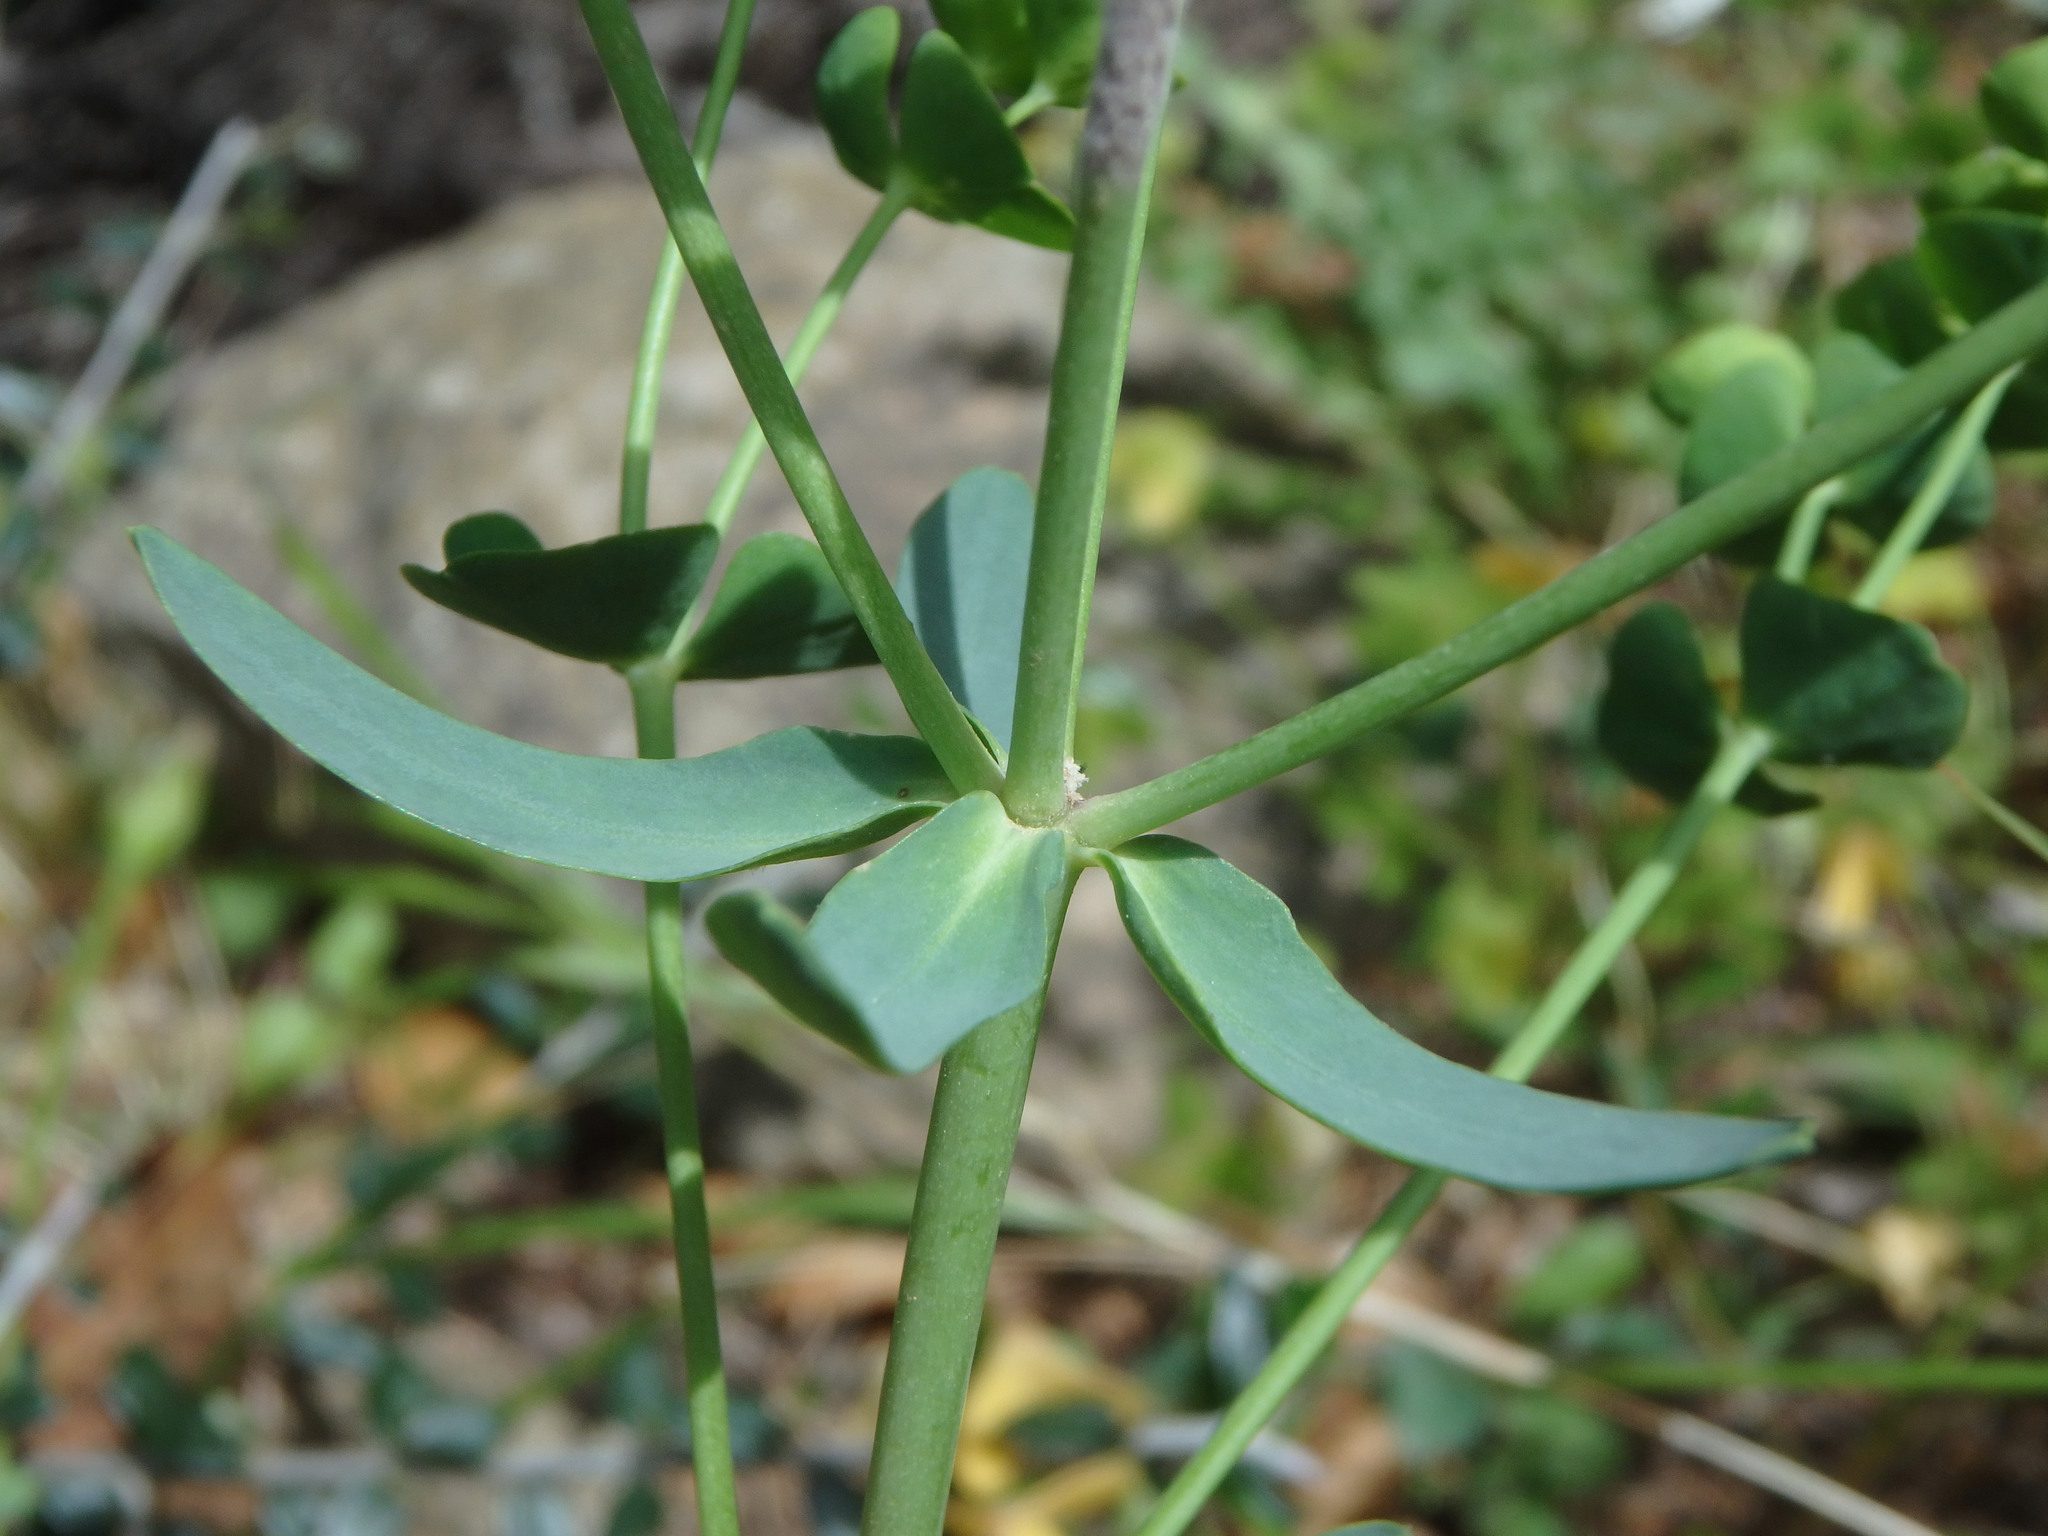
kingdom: Plantae
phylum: Tracheophyta
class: Magnoliopsida
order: Malpighiales
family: Euphorbiaceae
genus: Euphorbia
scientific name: Euphorbia segetalis
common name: Corn spurge
